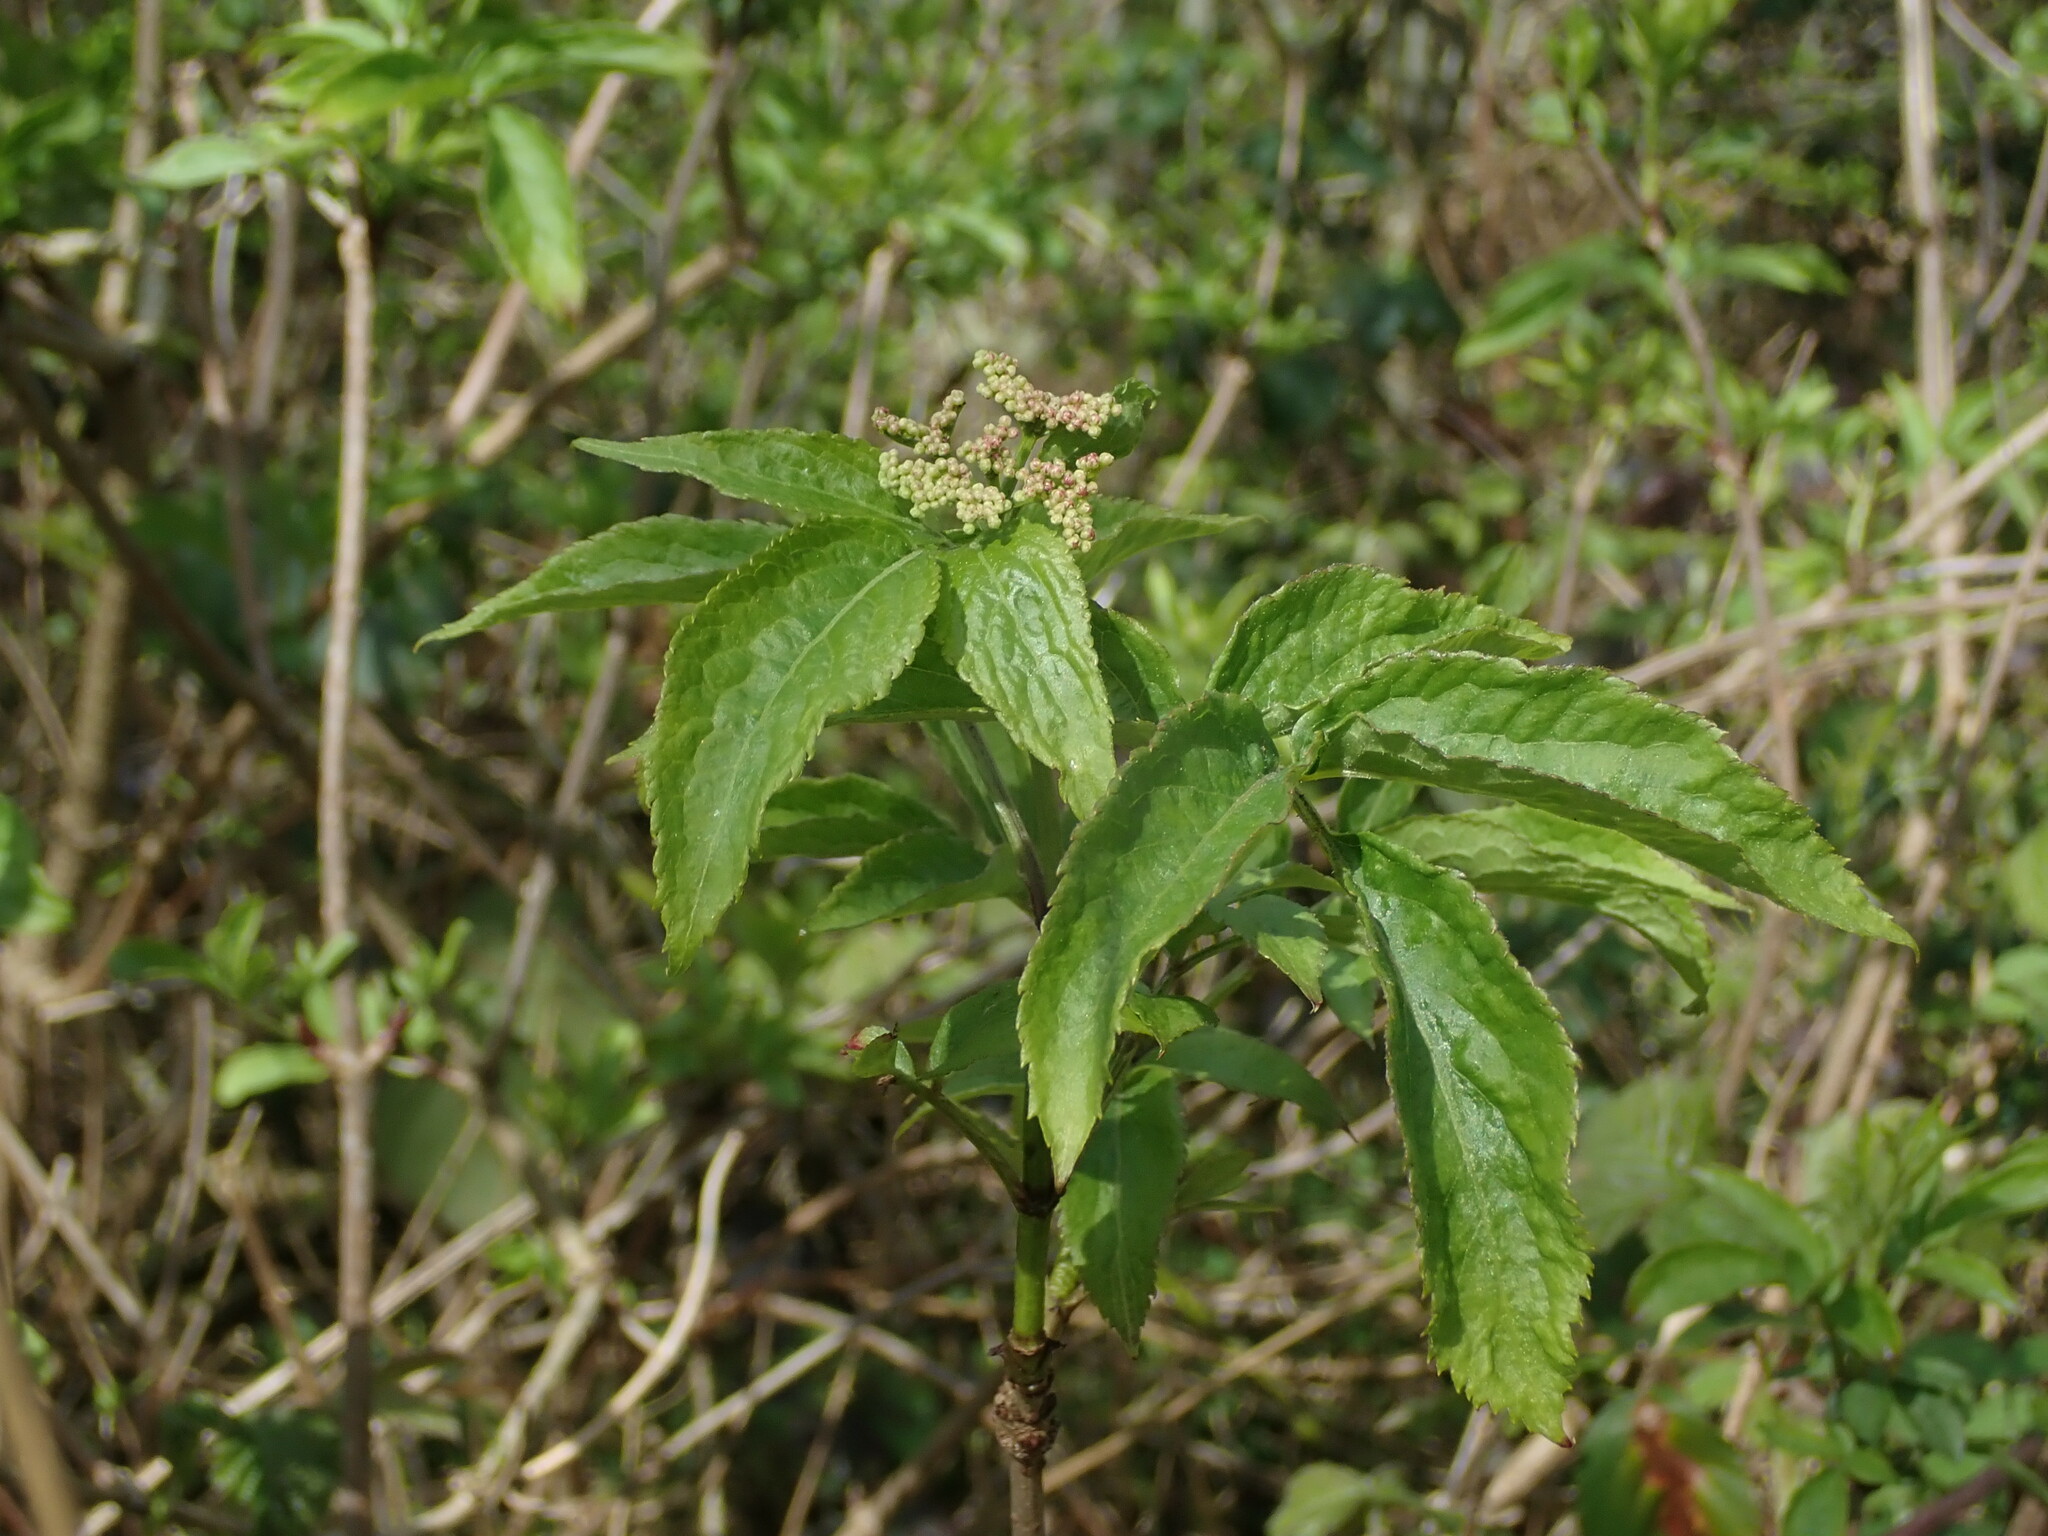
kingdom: Plantae
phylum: Tracheophyta
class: Magnoliopsida
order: Dipsacales
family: Viburnaceae
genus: Sambucus
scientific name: Sambucus nigra
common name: Elder
